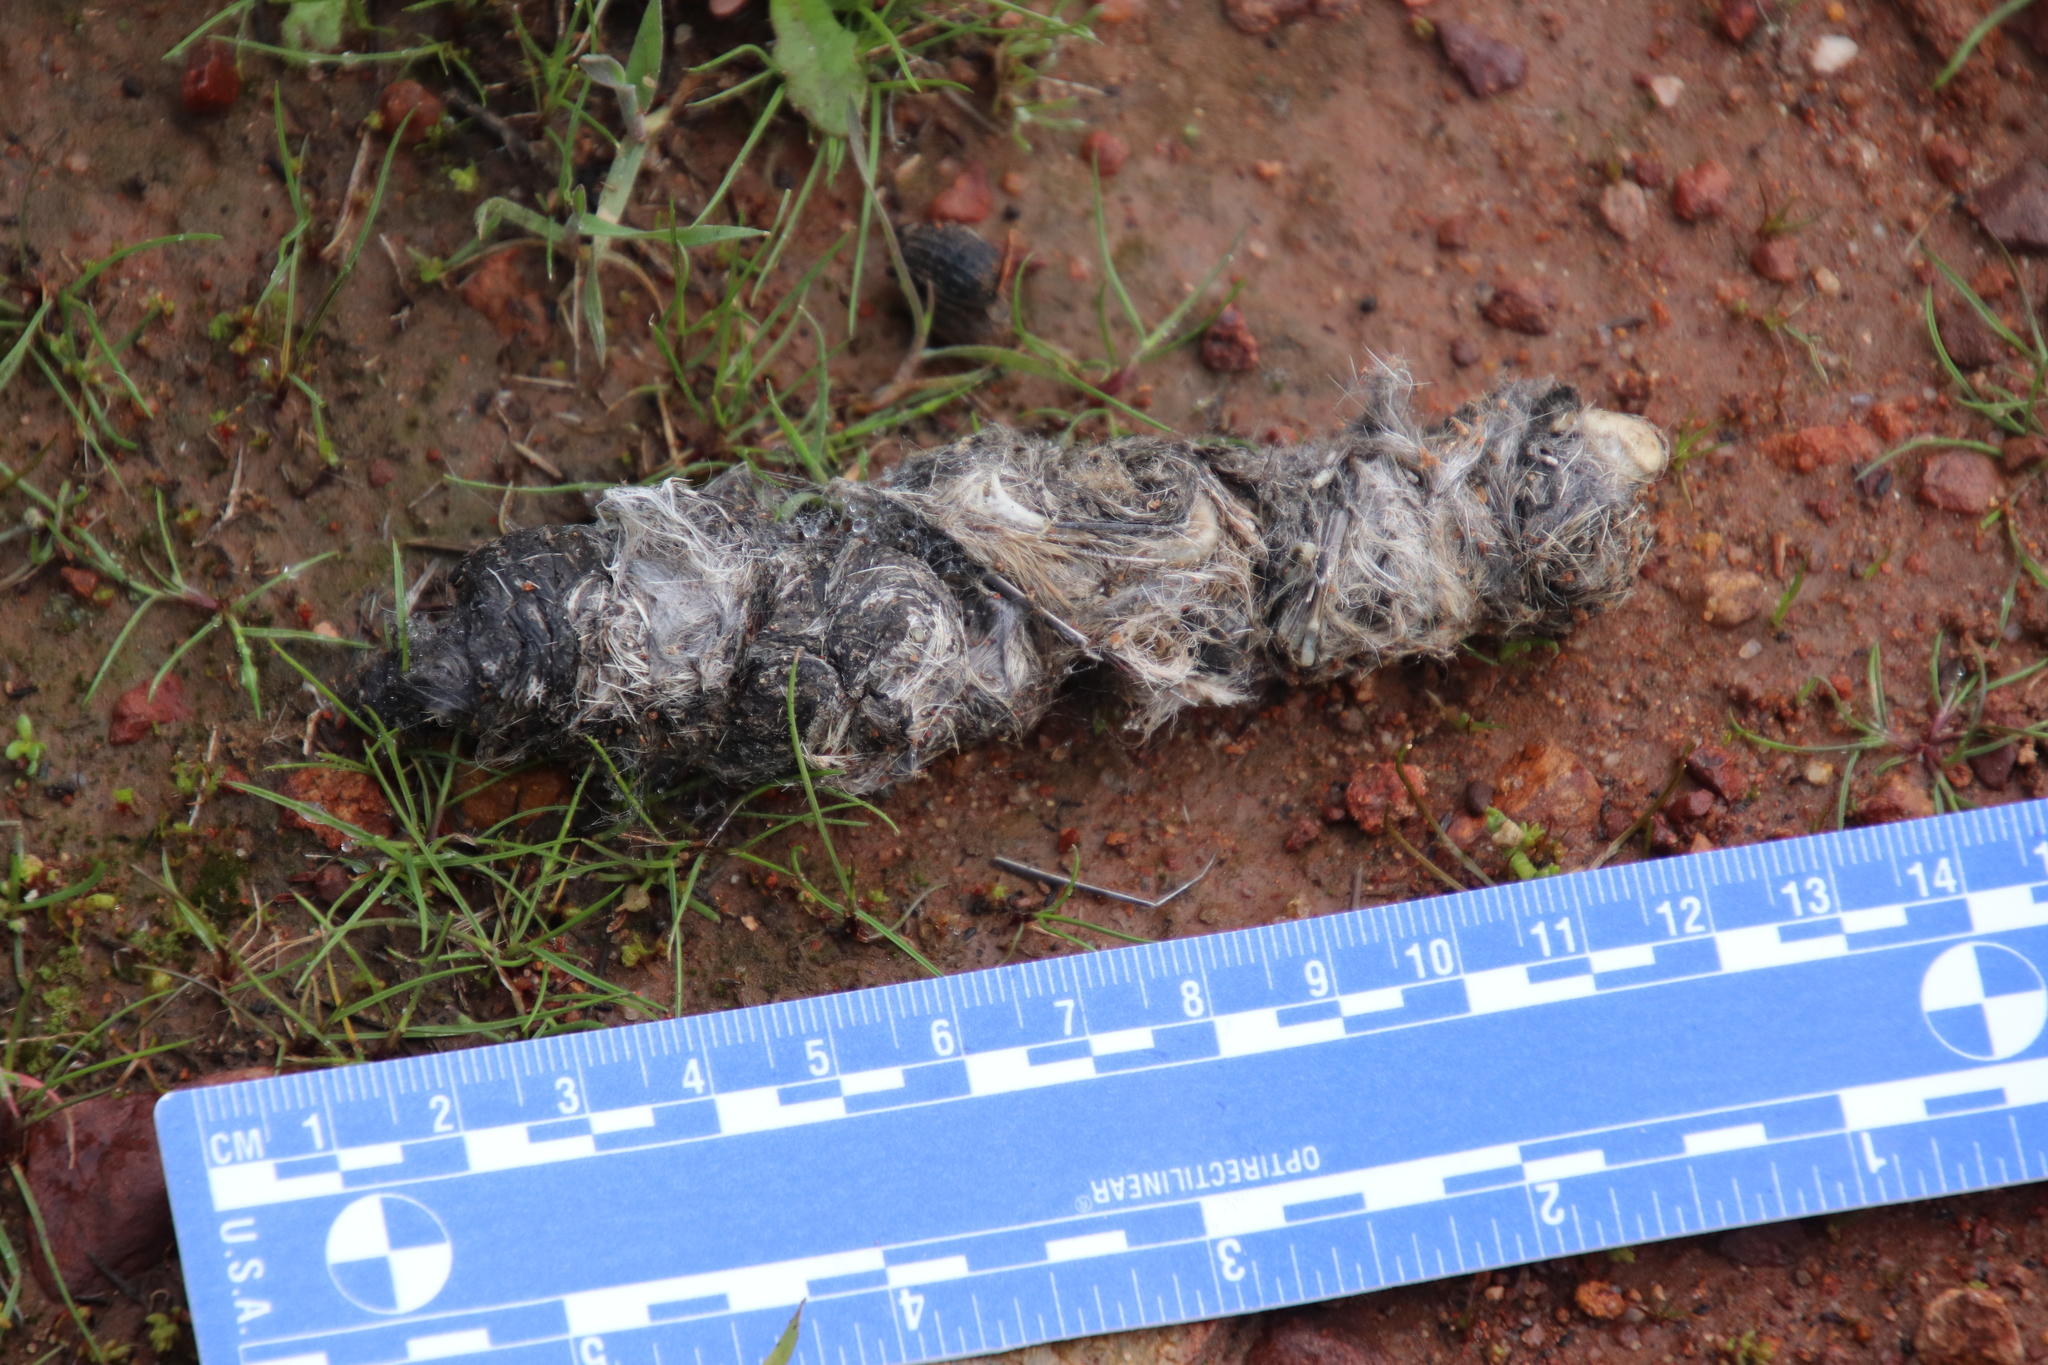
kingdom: Animalia
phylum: Chordata
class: Mammalia
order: Carnivora
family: Felidae
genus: Lynx
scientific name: Lynx rufus
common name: Bobcat
